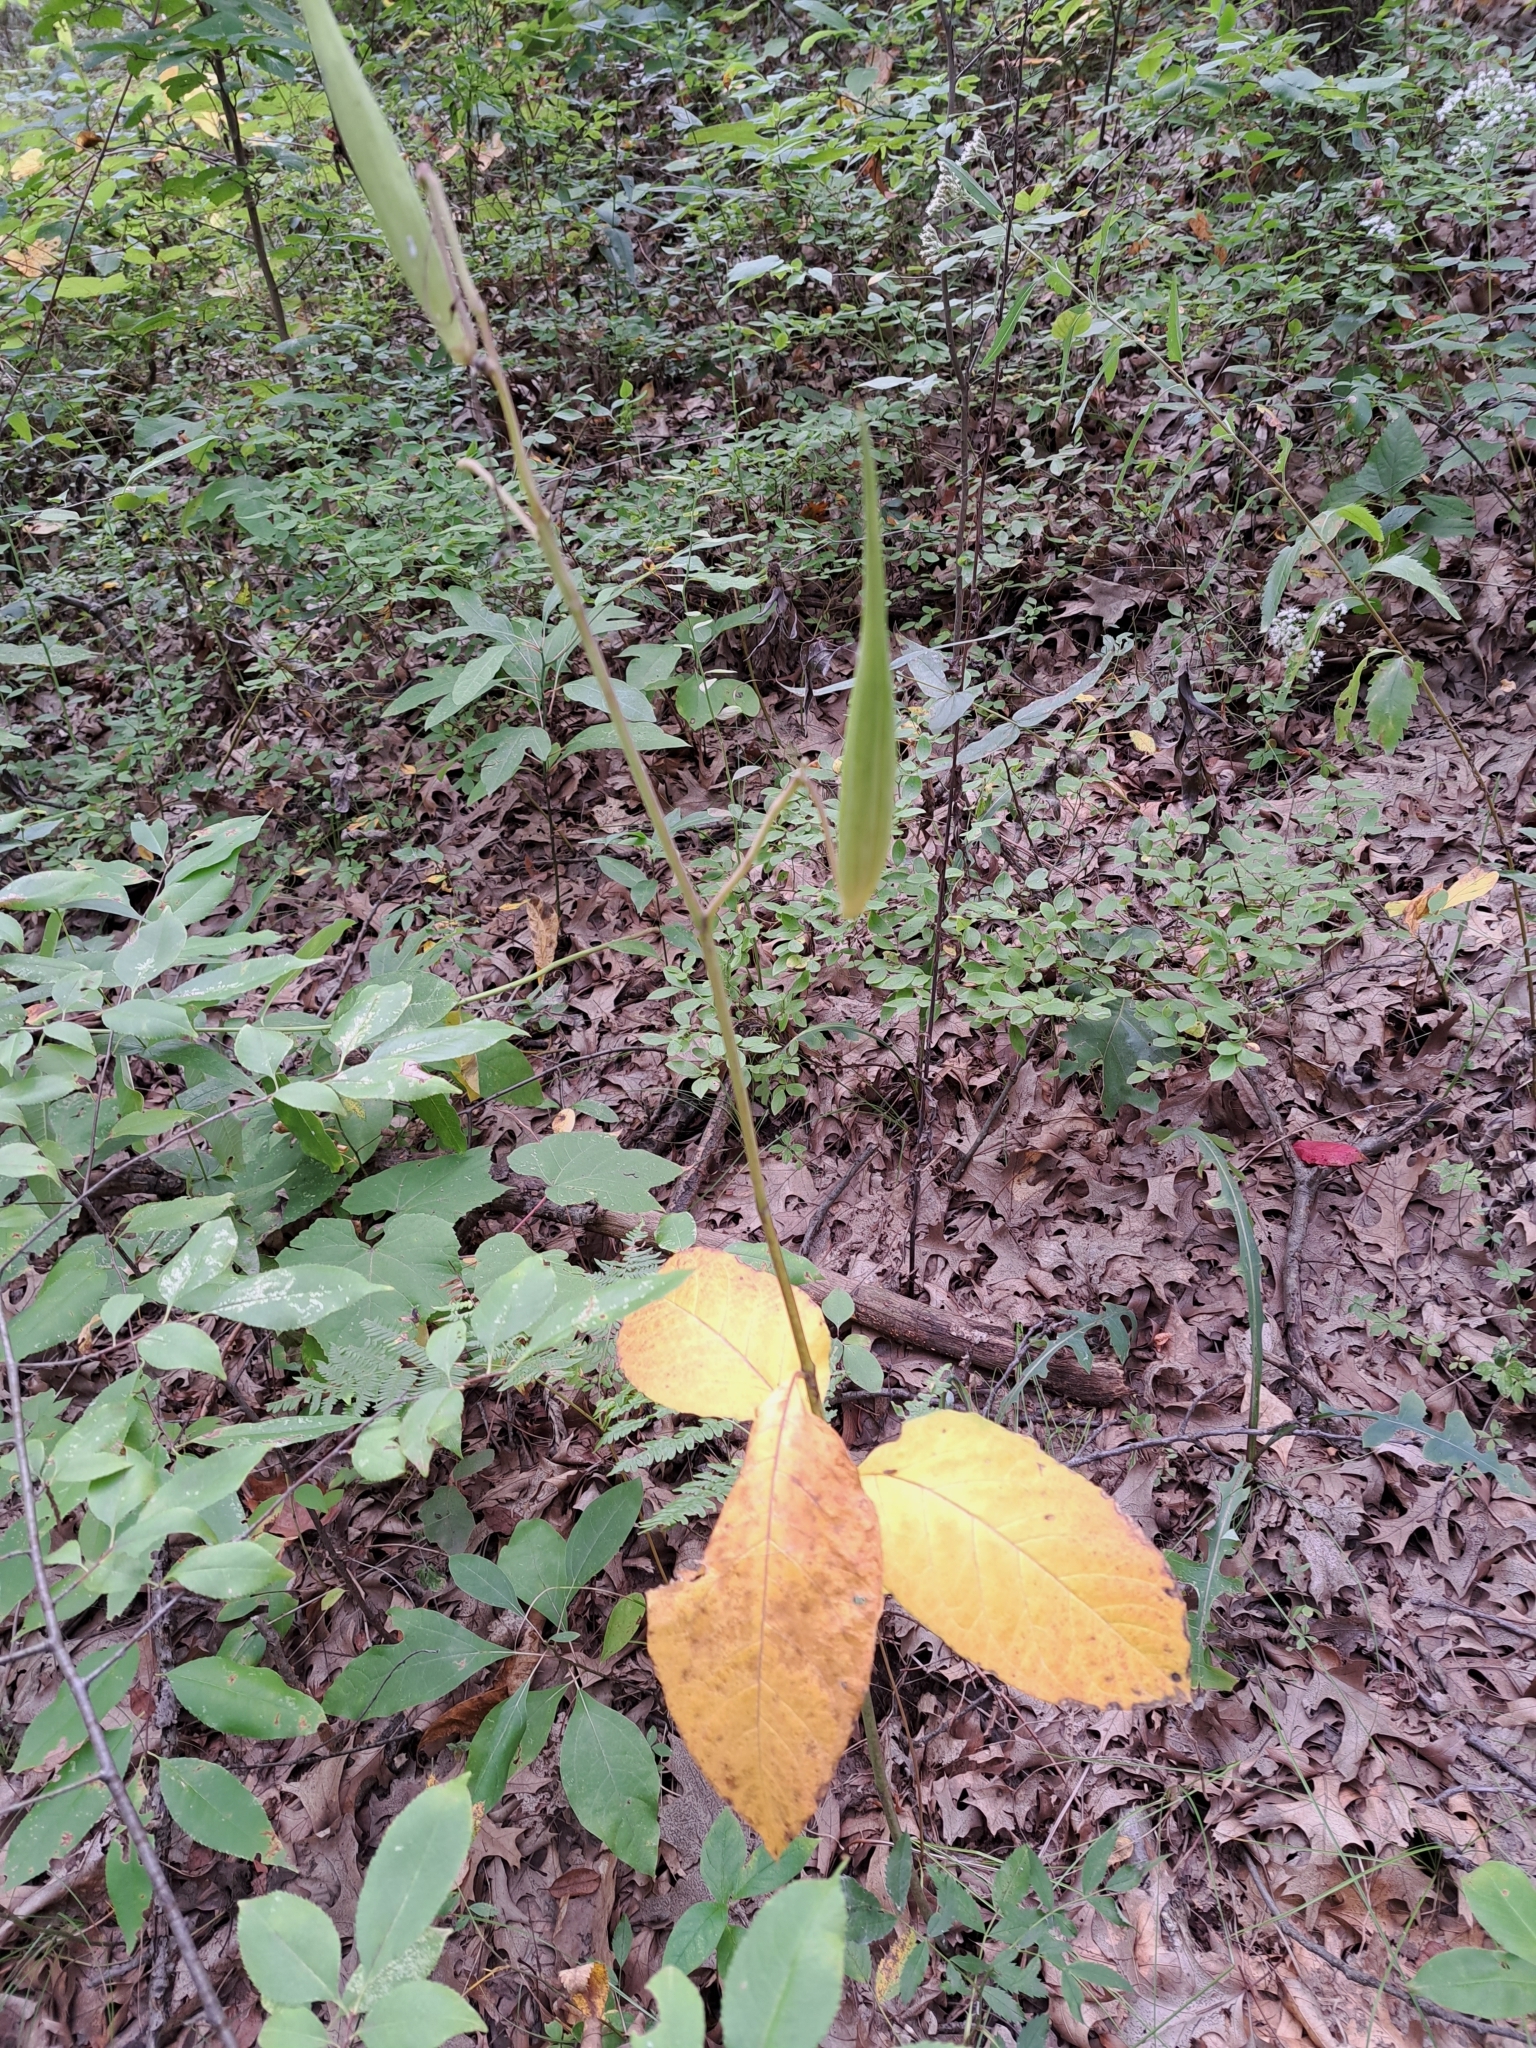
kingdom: Plantae
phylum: Tracheophyta
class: Magnoliopsida
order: Gentianales
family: Apocynaceae
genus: Asclepias
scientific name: Asclepias exaltata
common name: Poke milkweed
